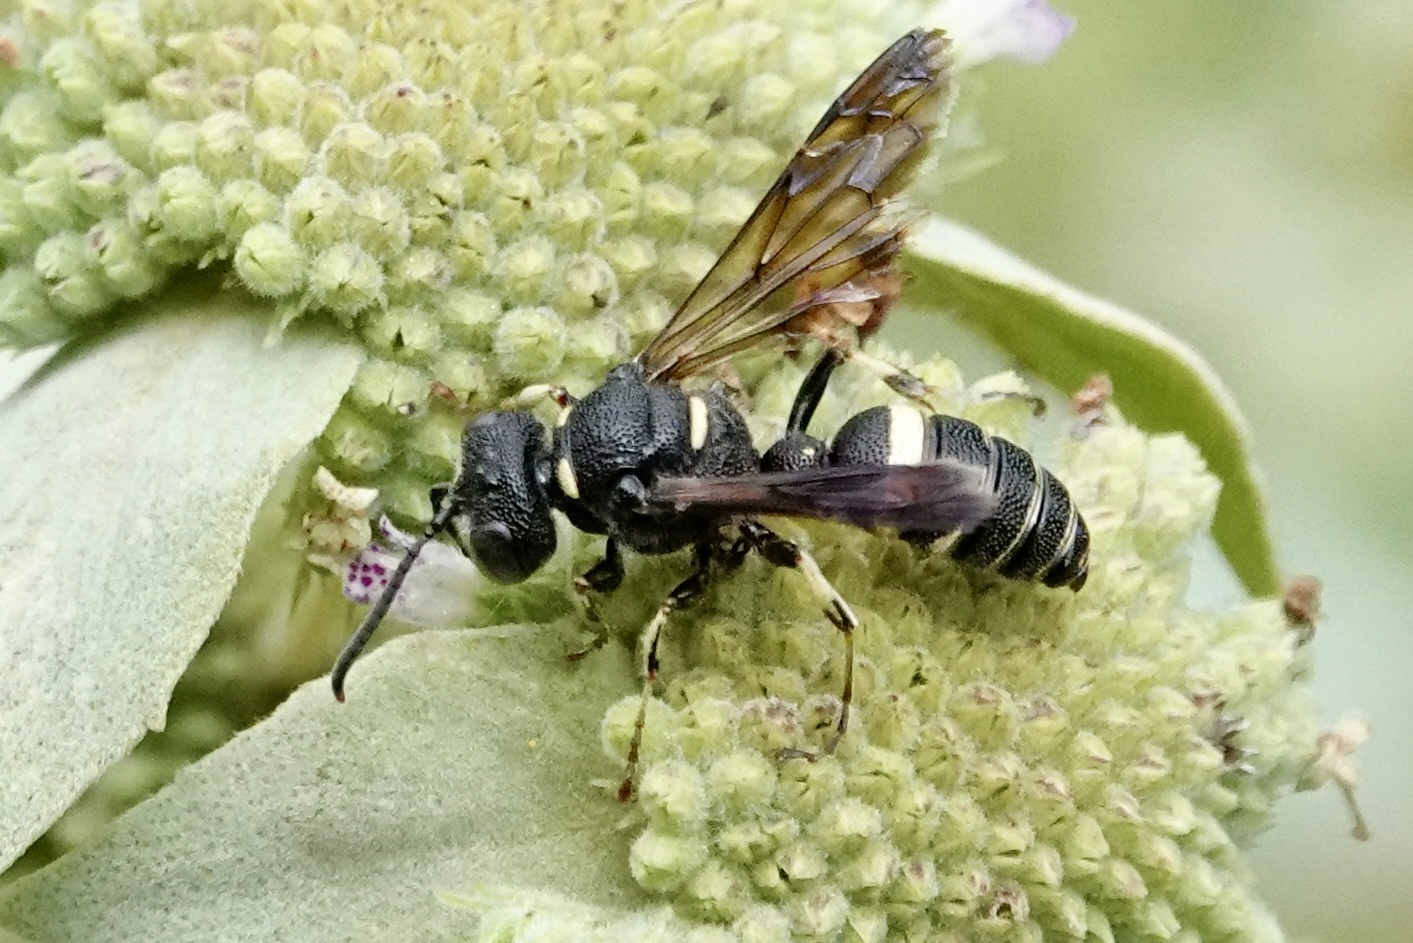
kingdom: Animalia
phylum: Arthropoda
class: Insecta
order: Hymenoptera
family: Crabronidae
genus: Cerceris
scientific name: Cerceris fumipennis
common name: Smokey-winged beetle bandit wasp
